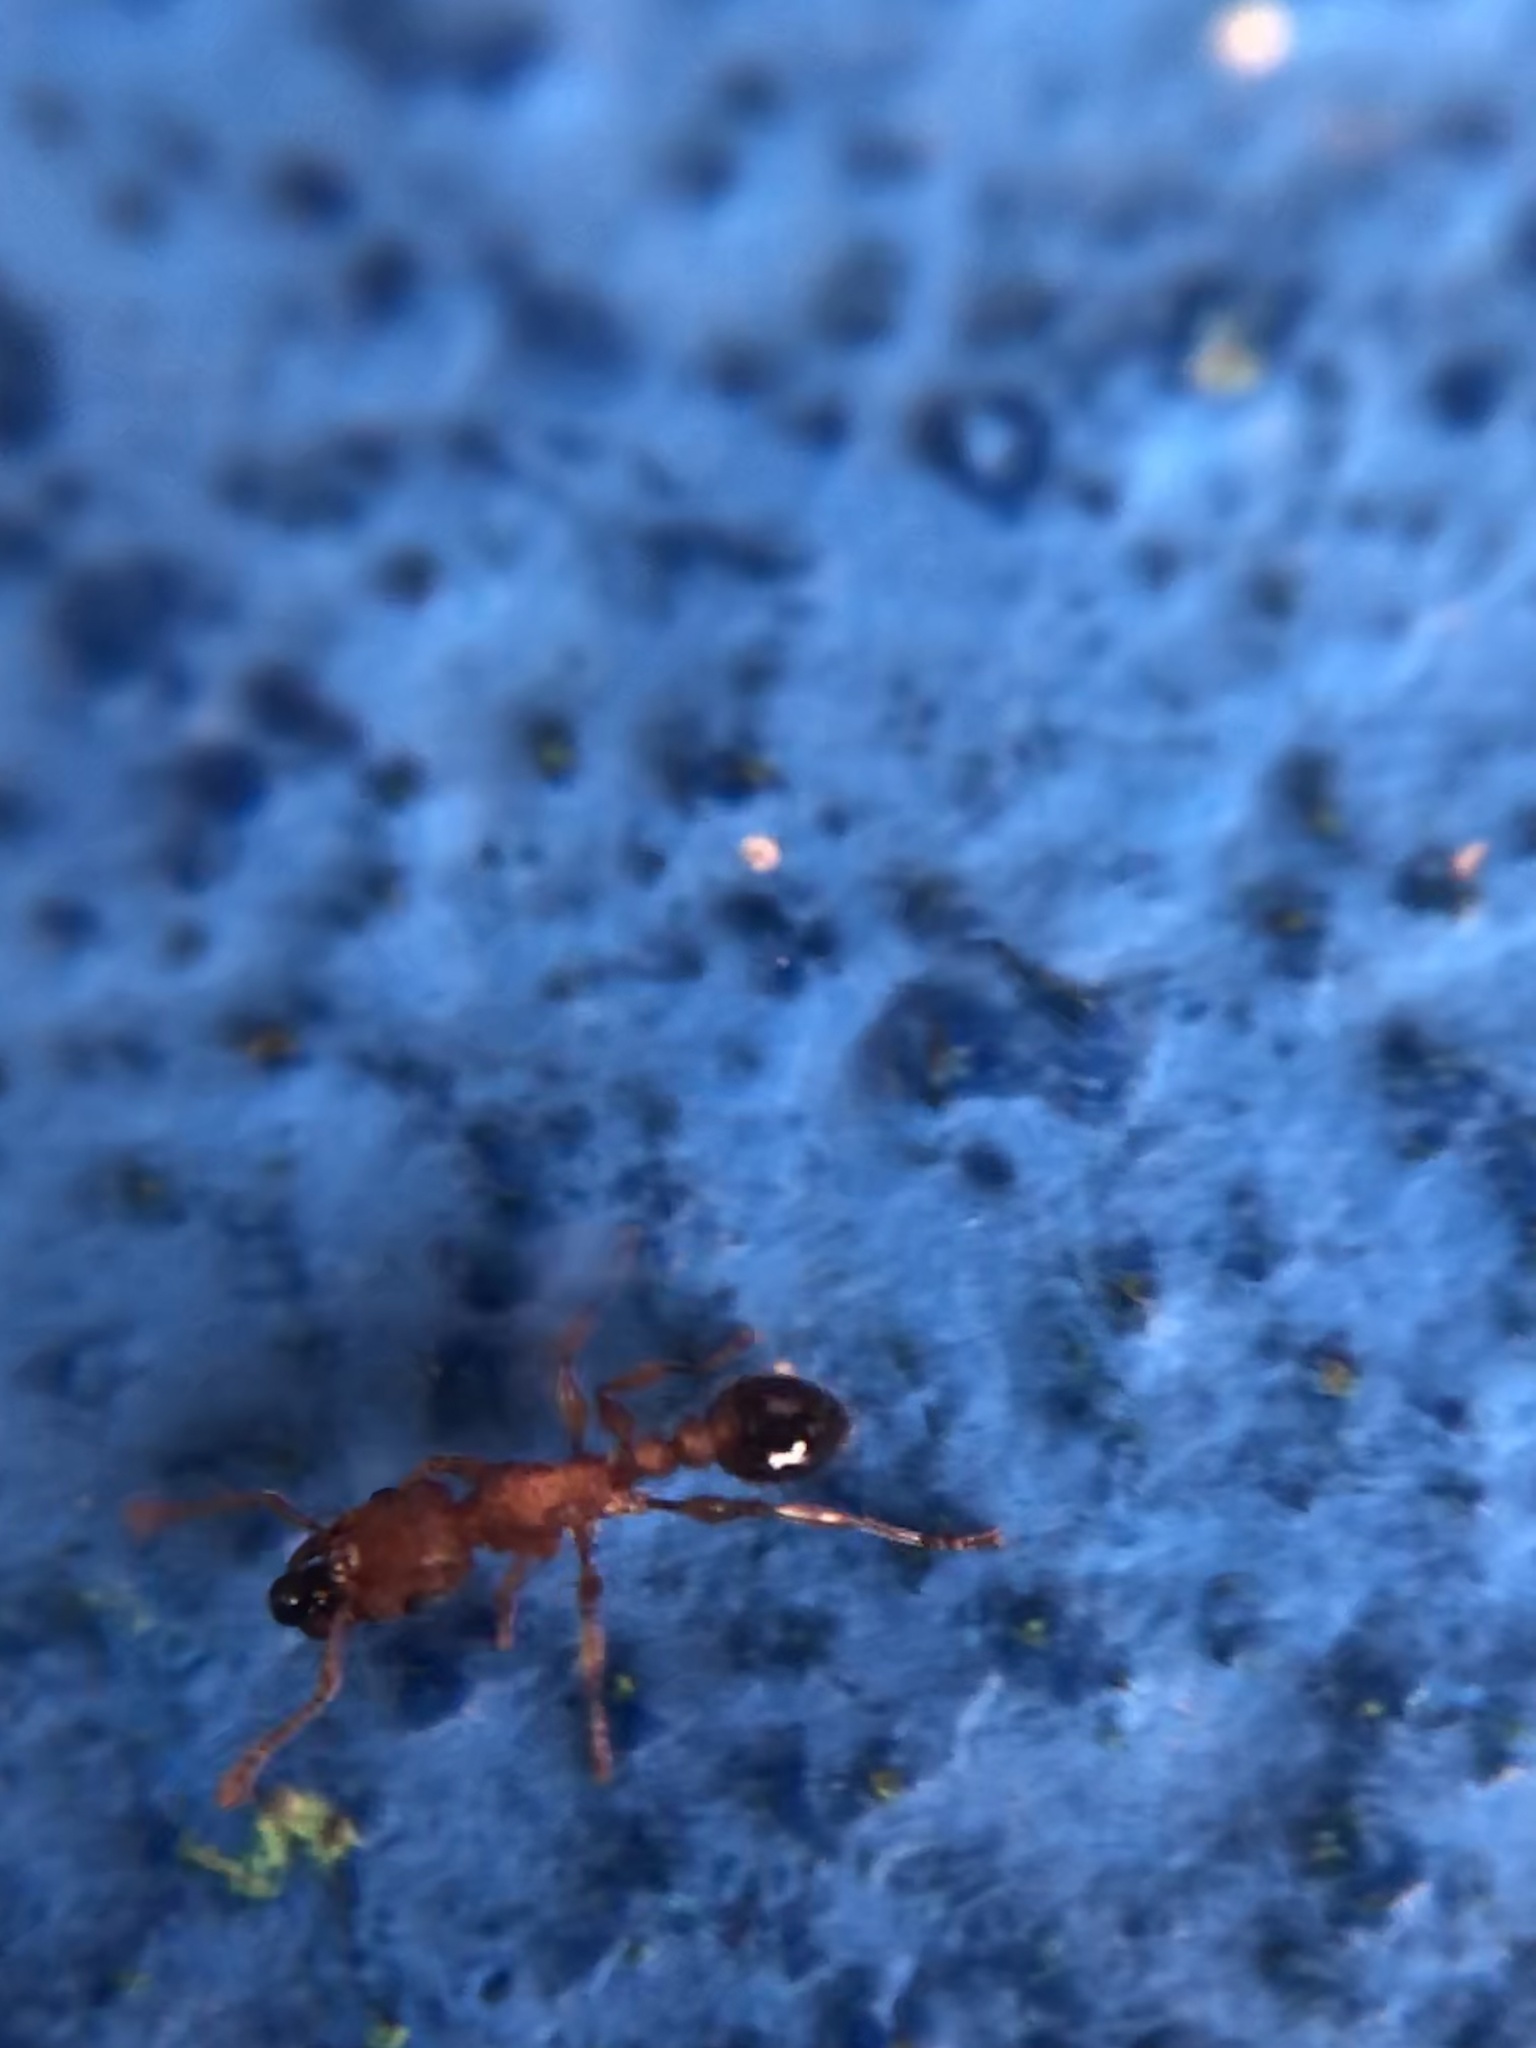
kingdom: Animalia
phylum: Arthropoda
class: Insecta
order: Hymenoptera
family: Formicidae
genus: Tetramorium
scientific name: Tetramorium bicarinatum
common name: Guinea ant
